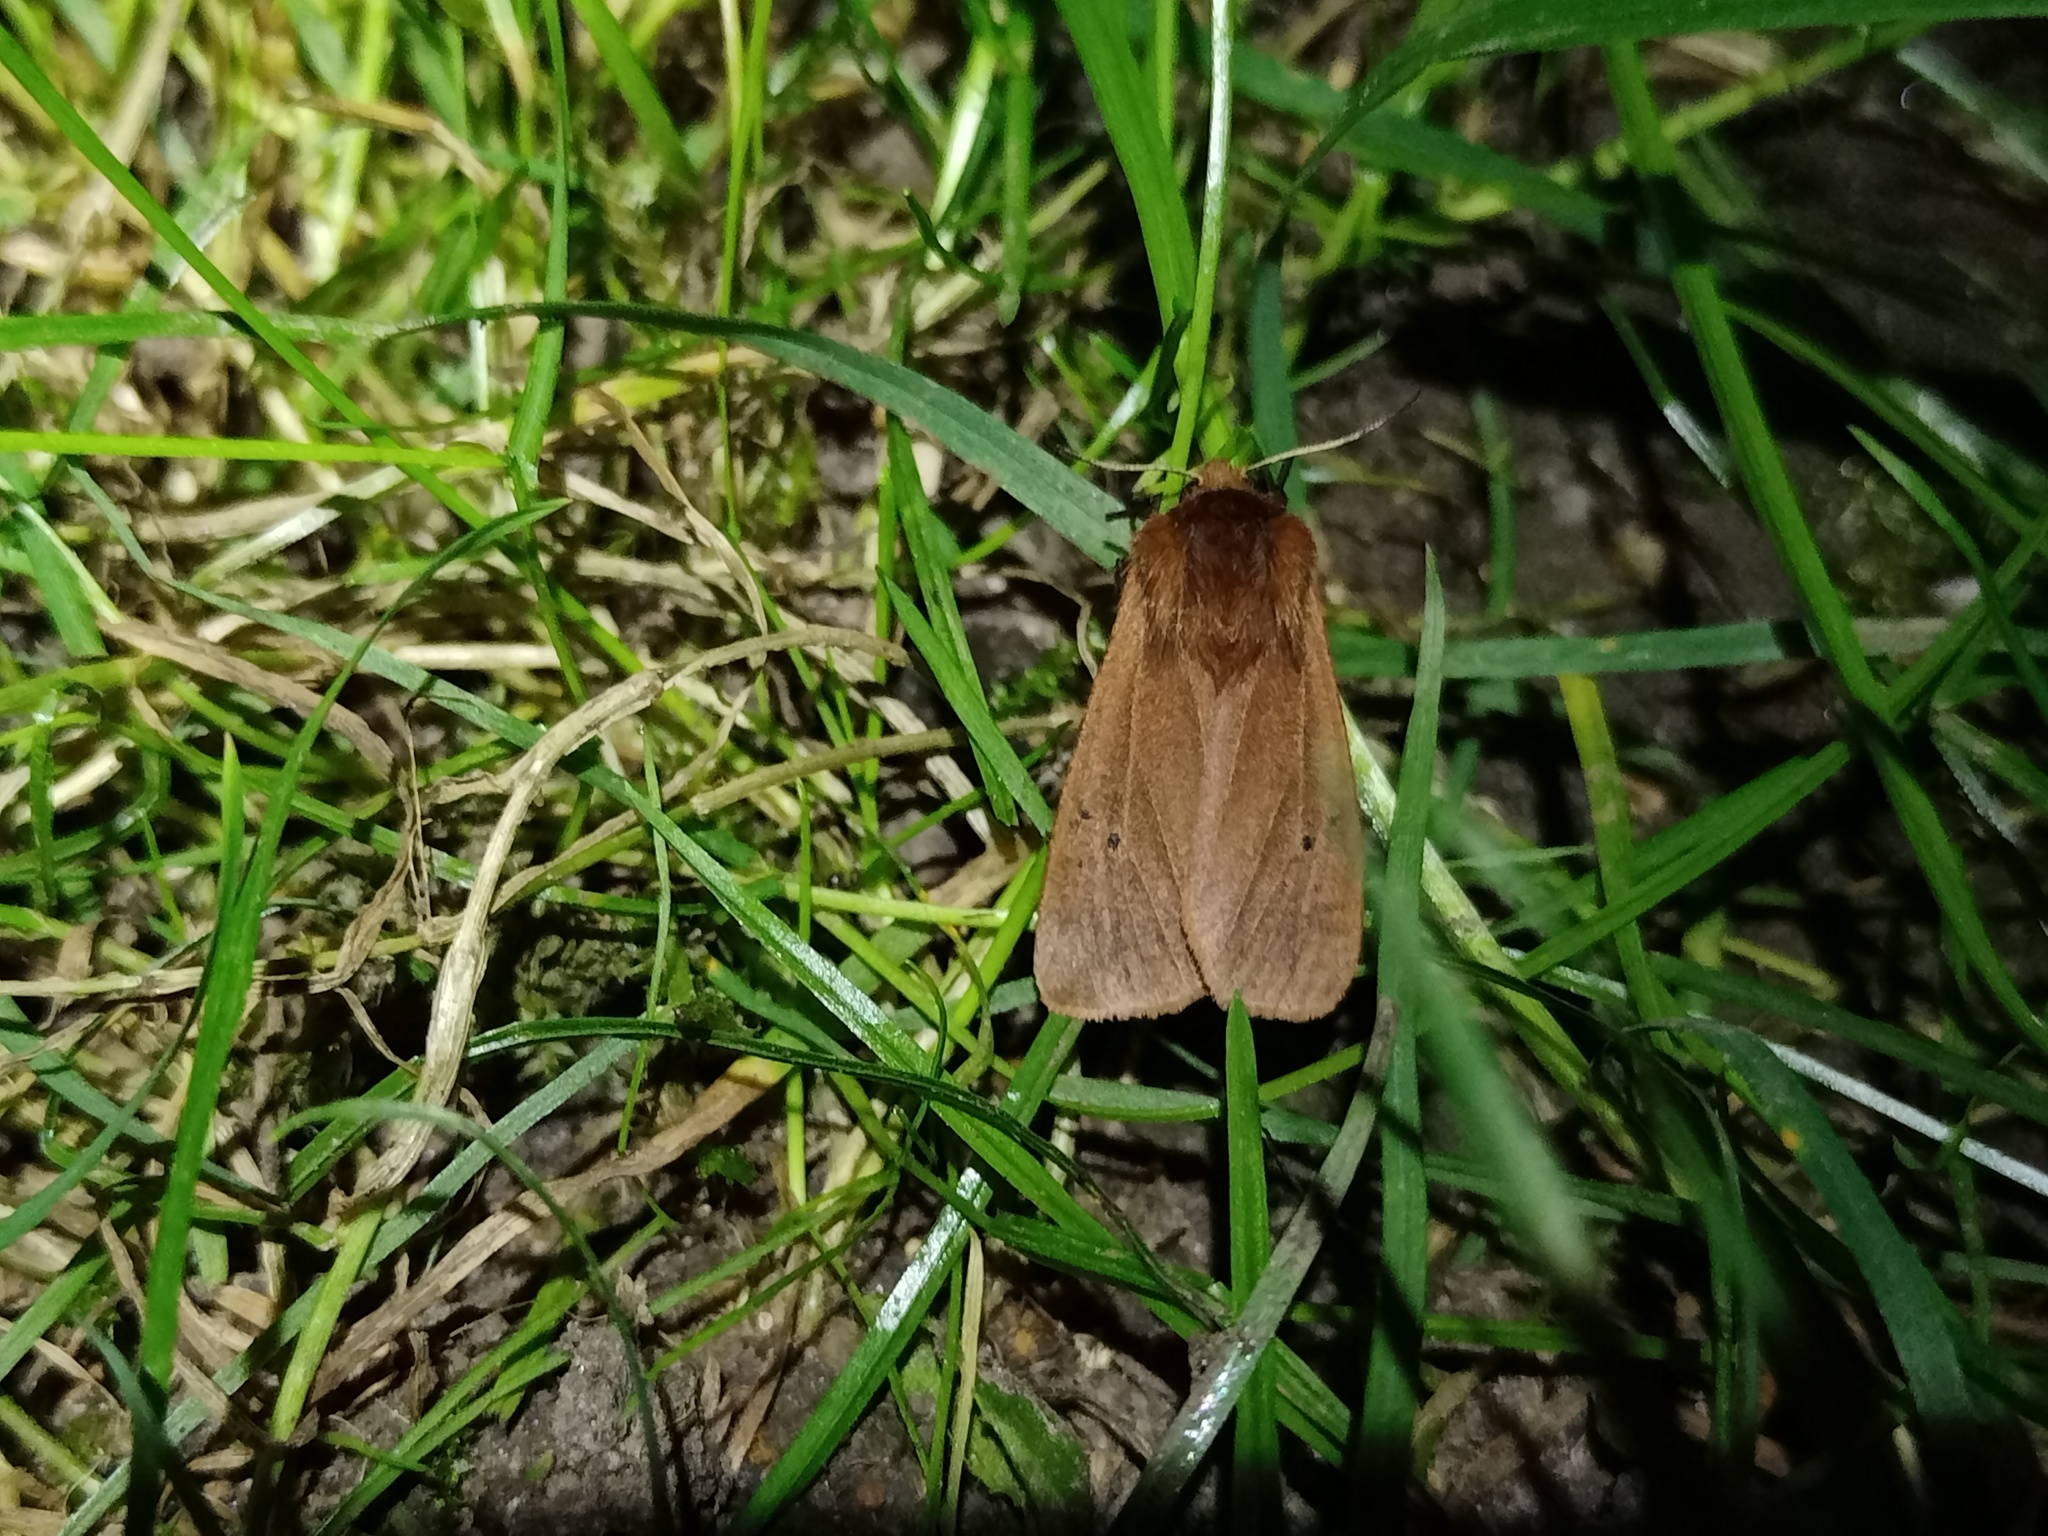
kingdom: Animalia
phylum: Arthropoda
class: Insecta
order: Lepidoptera
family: Erebidae
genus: Phragmatobia
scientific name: Phragmatobia fuliginosa
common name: Ruby tiger
